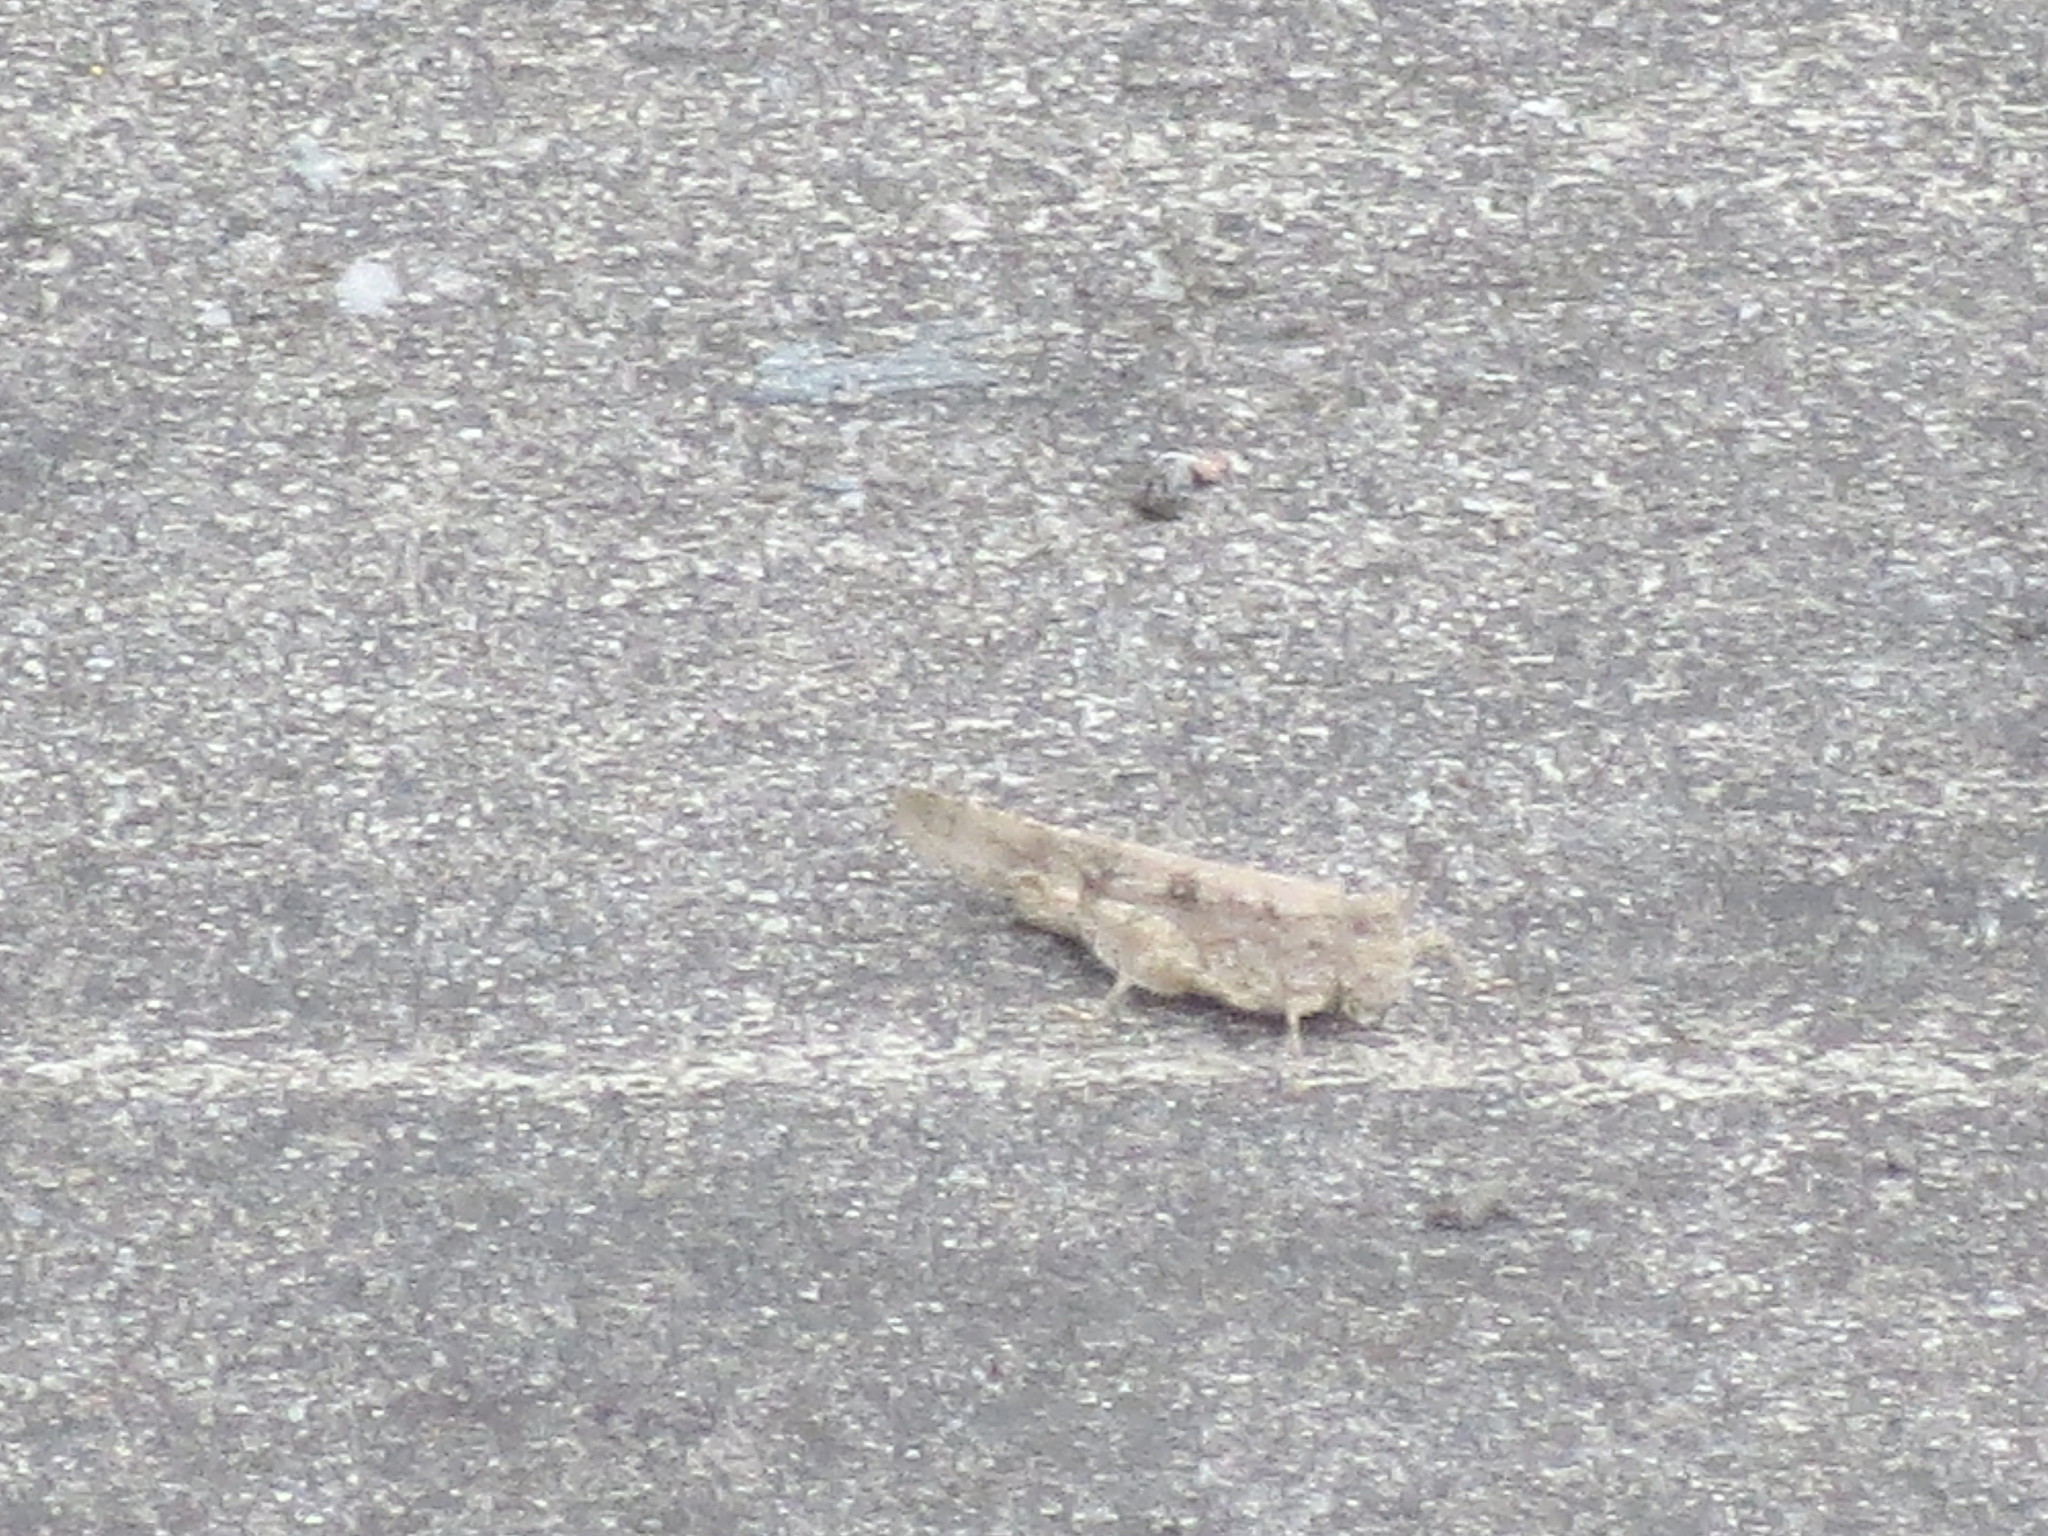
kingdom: Animalia
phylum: Arthropoda
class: Insecta
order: Orthoptera
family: Acrididae
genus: Trimerotropis
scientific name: Trimerotropis maritima
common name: Seaside locust
